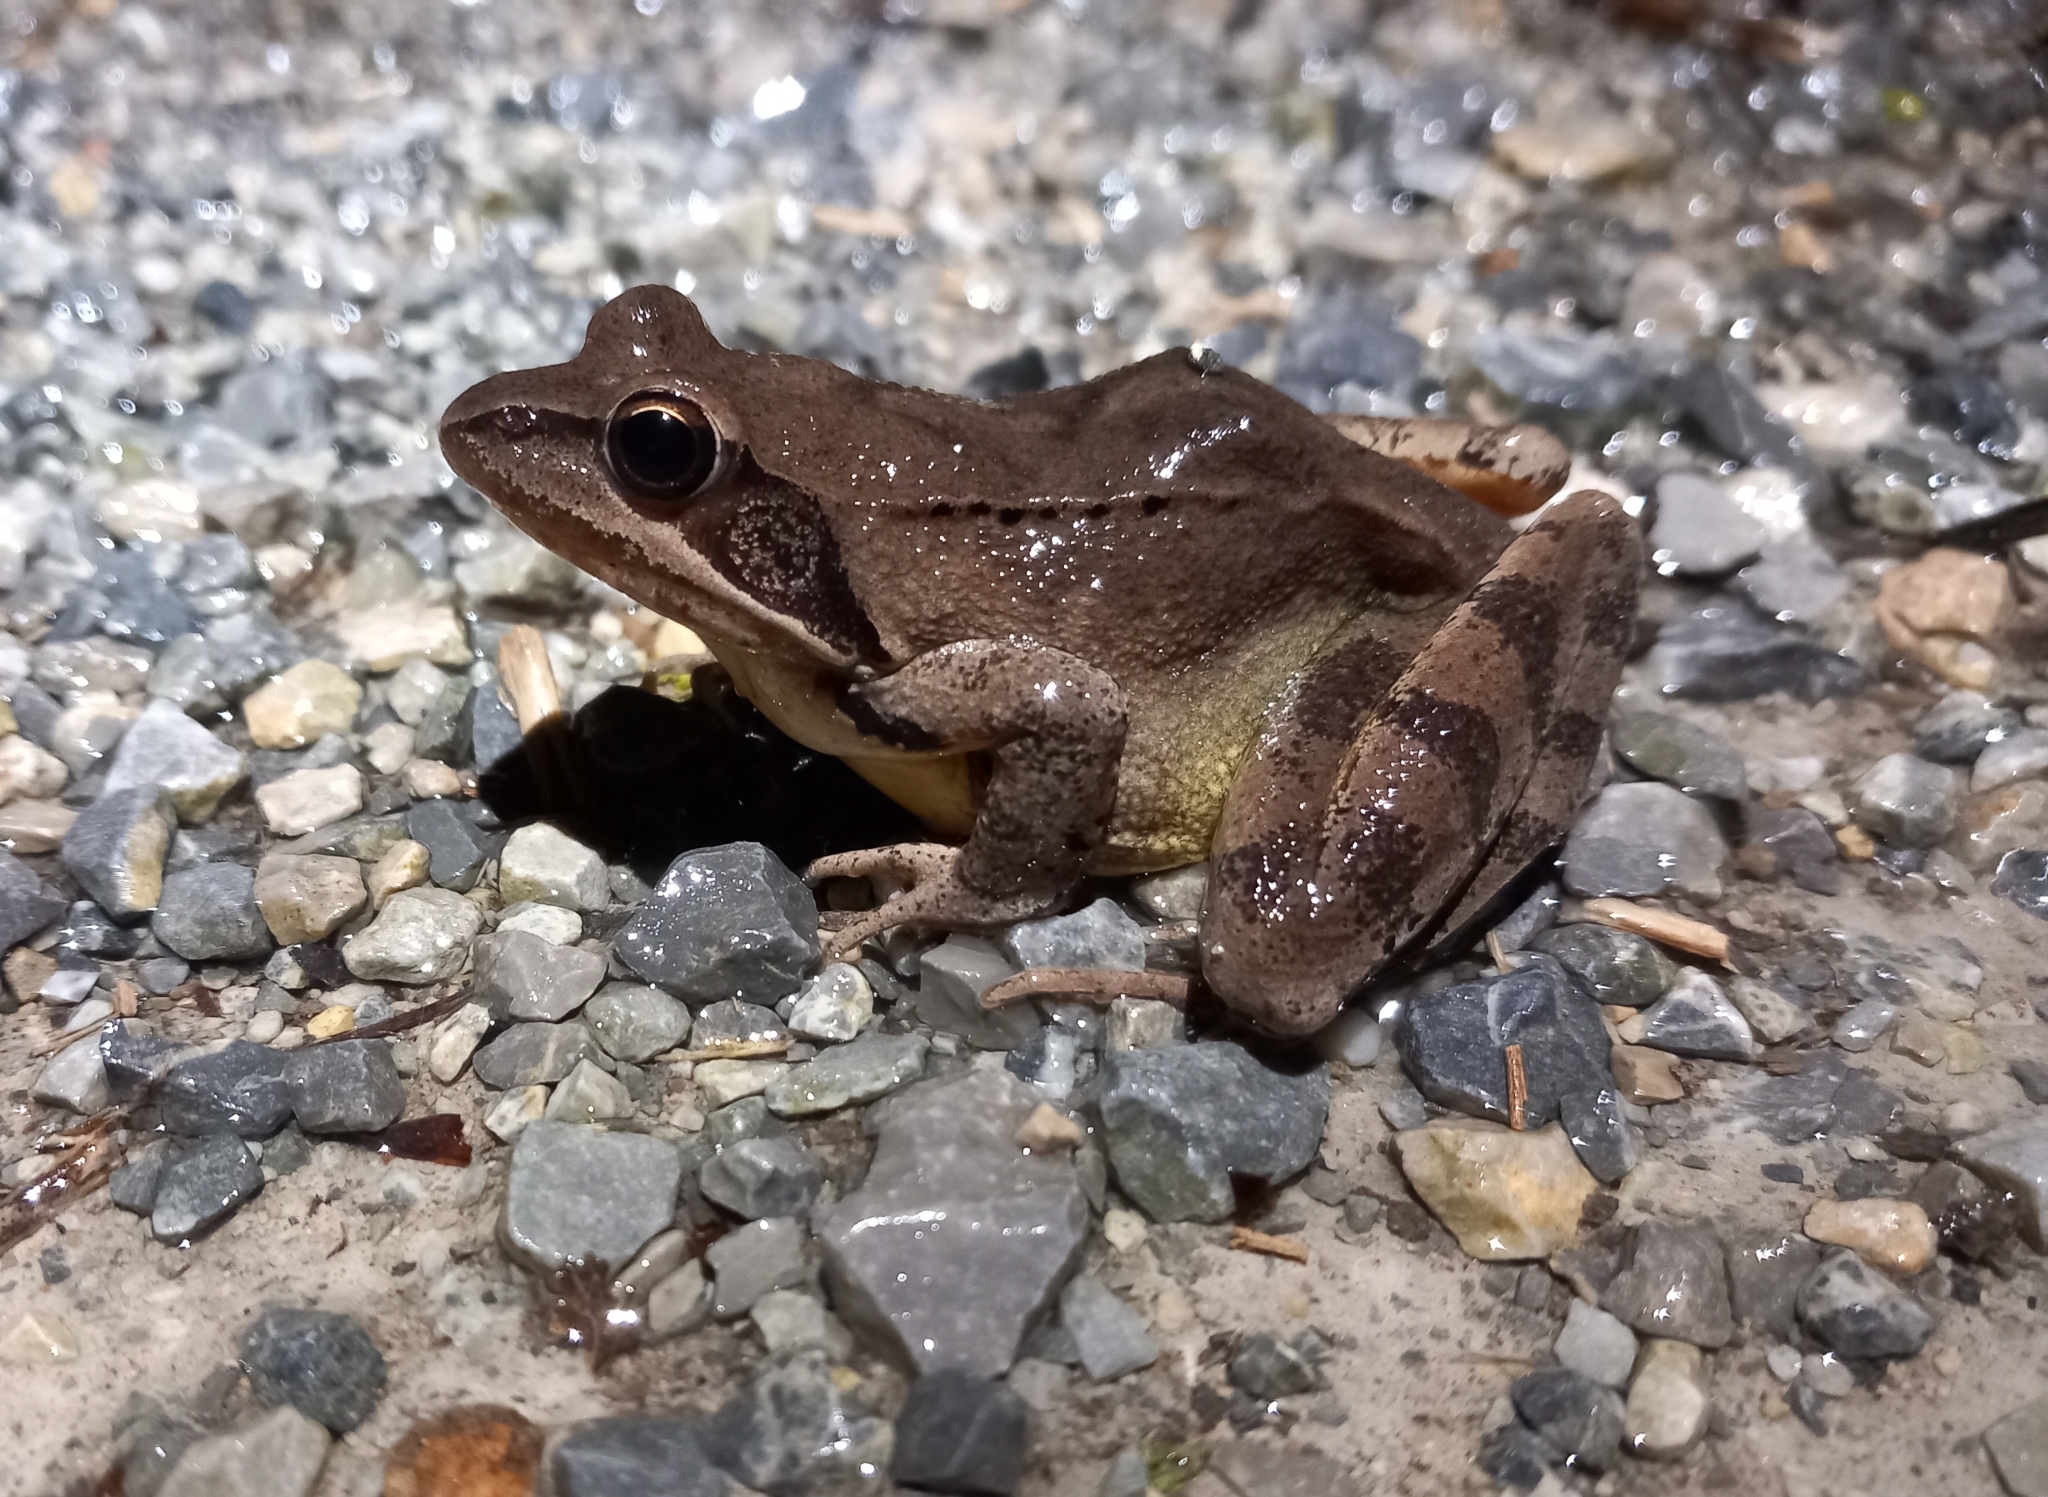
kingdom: Animalia
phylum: Chordata
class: Amphibia
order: Anura
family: Ranidae
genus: Rana
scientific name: Rana dalmatina
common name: Agile frog
